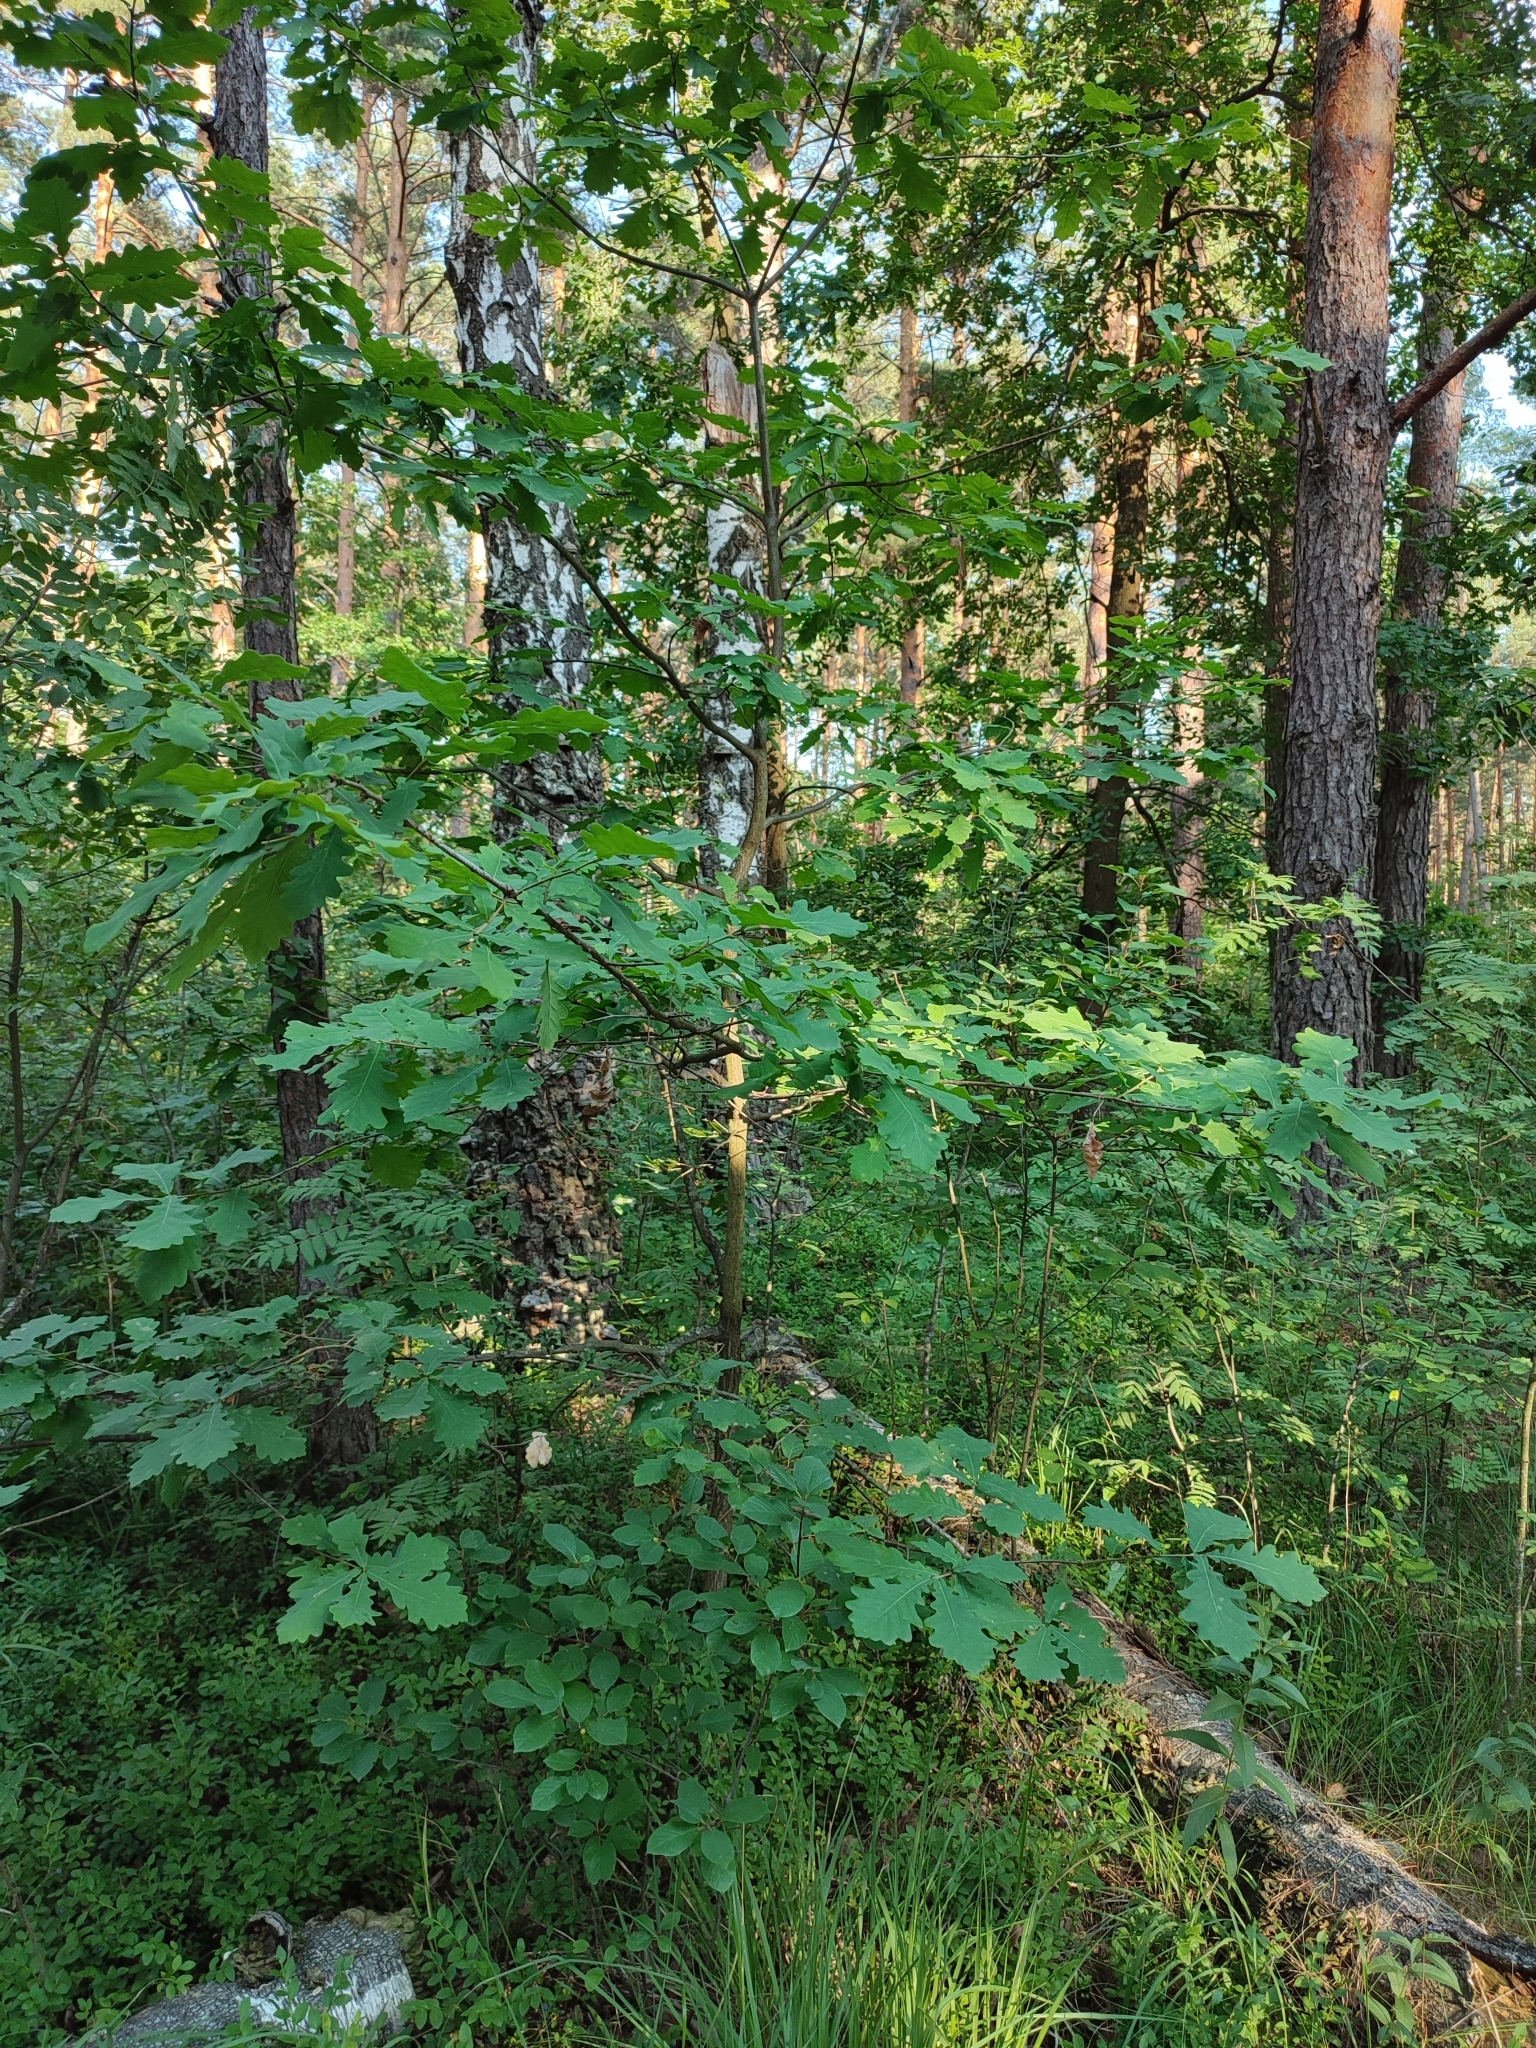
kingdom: Plantae
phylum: Tracheophyta
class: Magnoliopsida
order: Fagales
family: Fagaceae
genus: Quercus
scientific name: Quercus robur
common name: Pedunculate oak
